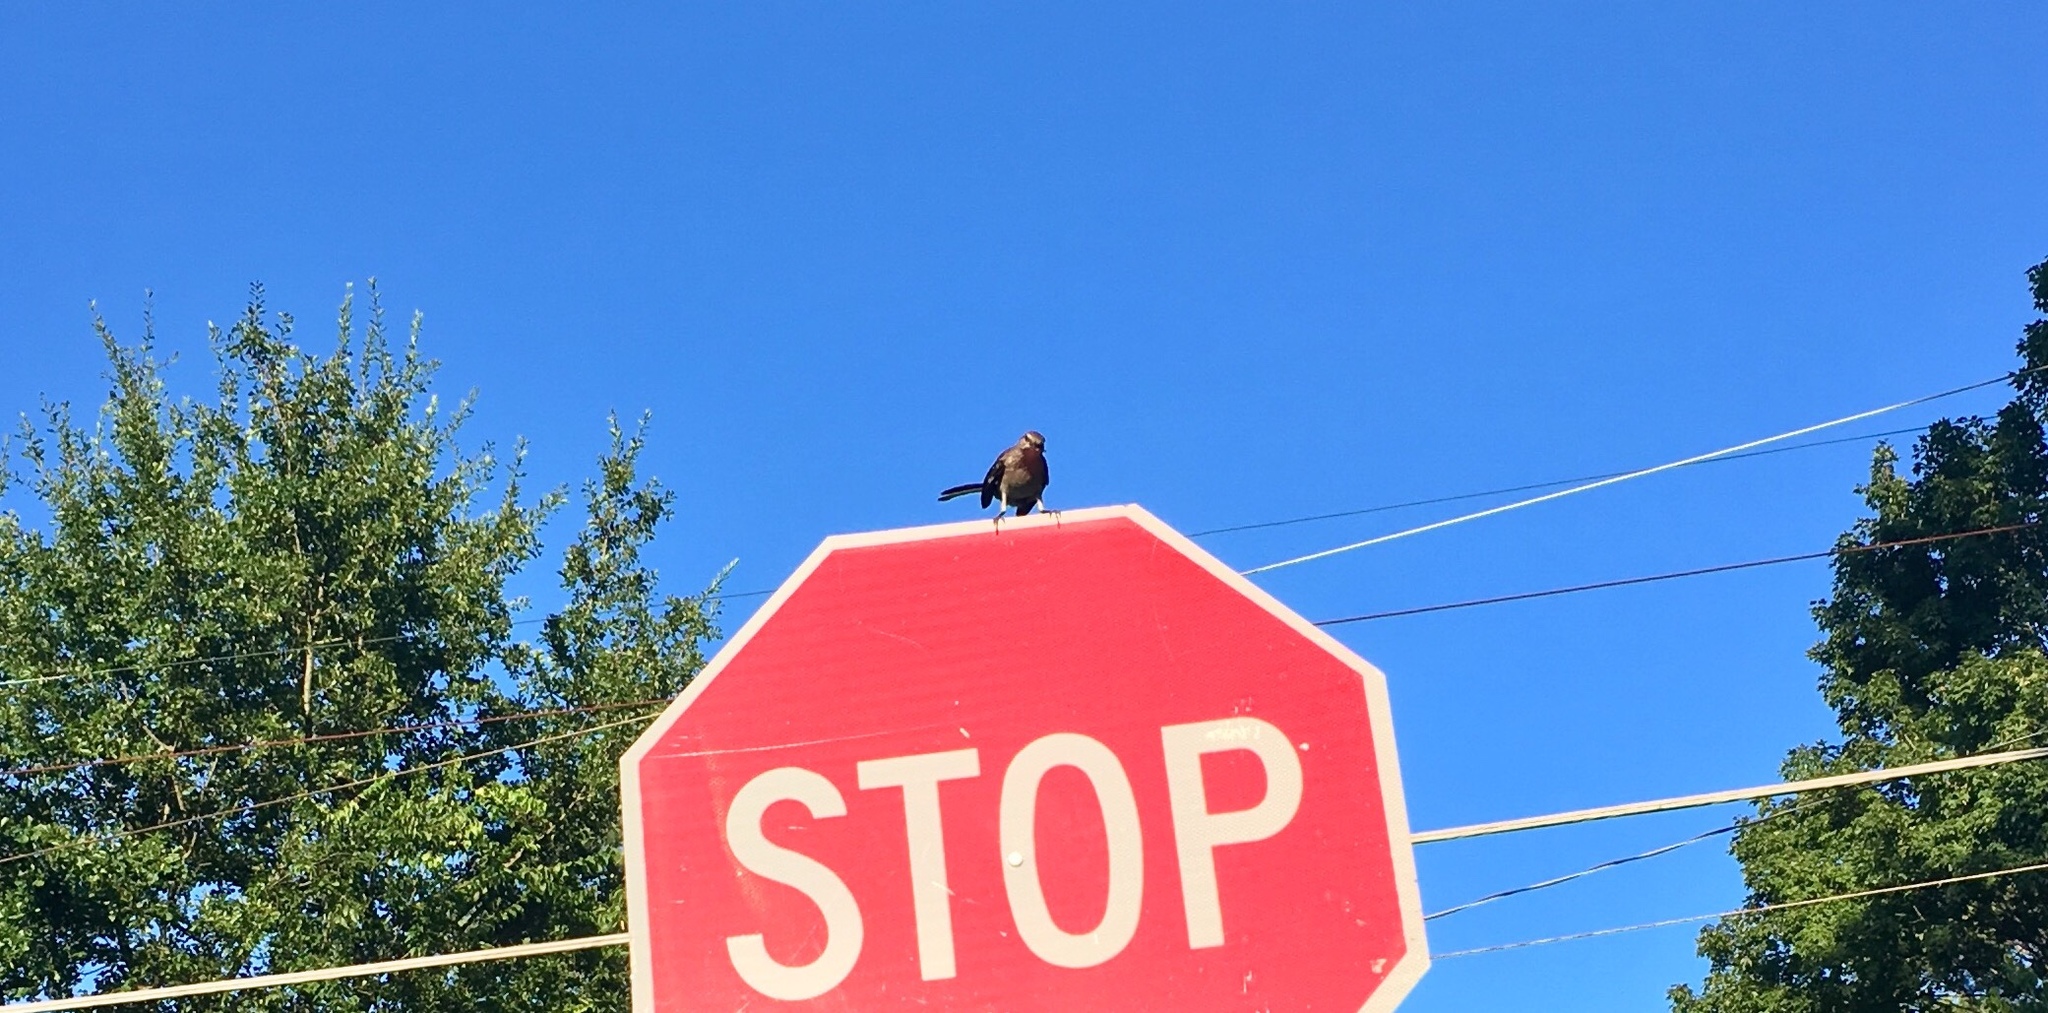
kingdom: Animalia
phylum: Chordata
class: Aves
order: Passeriformes
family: Mimidae
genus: Mimus
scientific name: Mimus polyglottos
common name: Northern mockingbird
